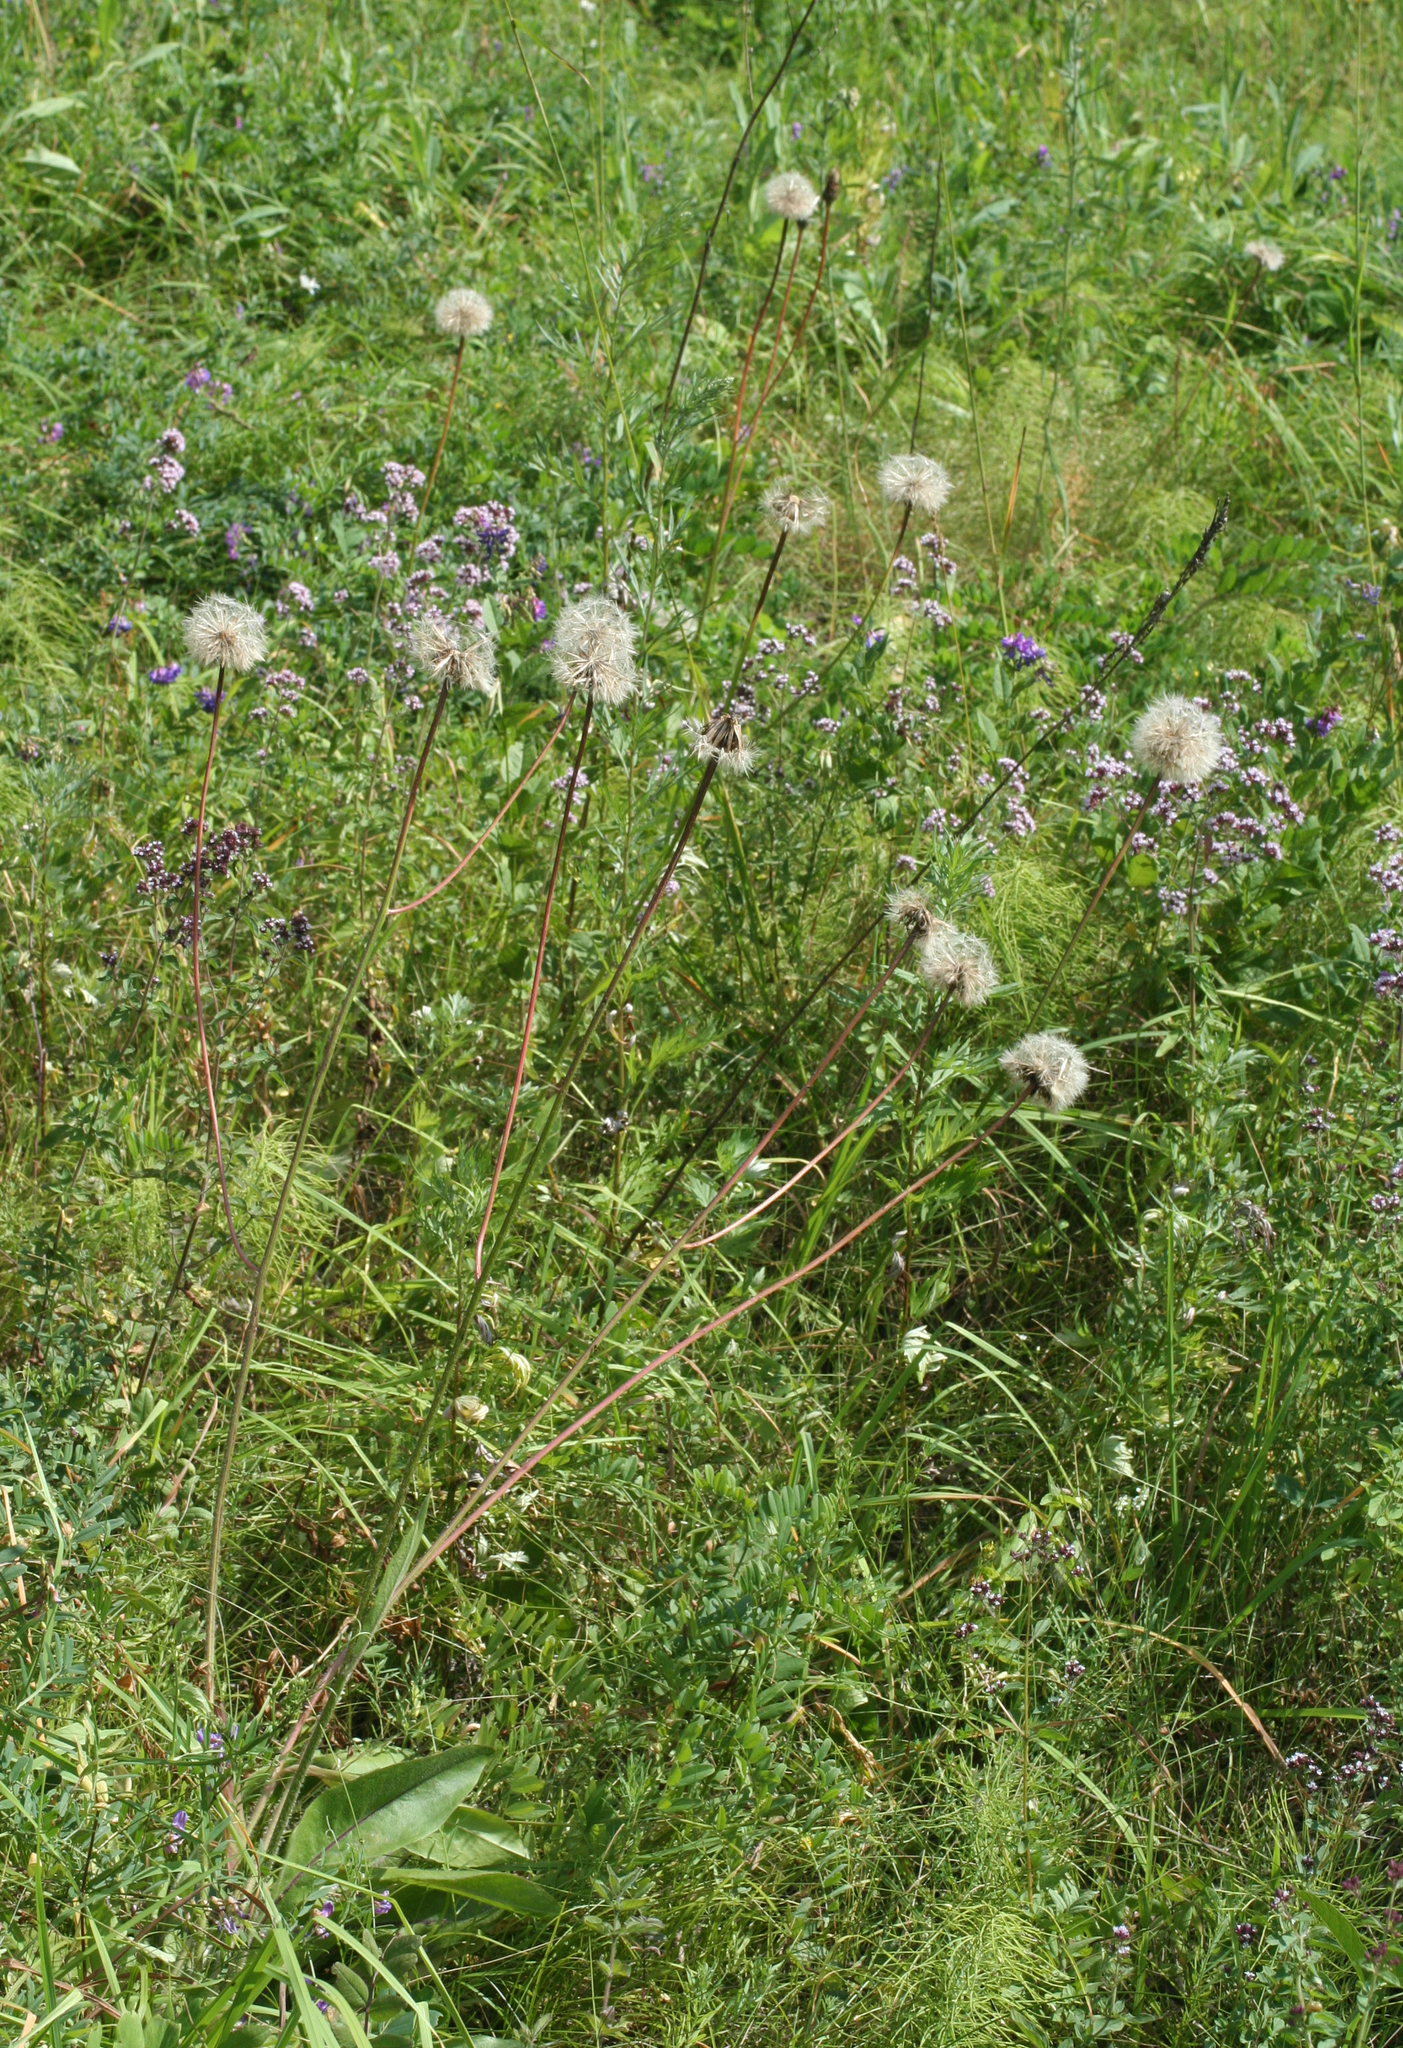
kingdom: Plantae
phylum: Tracheophyta
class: Magnoliopsida
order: Asterales
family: Asteraceae
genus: Trommsdorffia
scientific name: Trommsdorffia maculata
